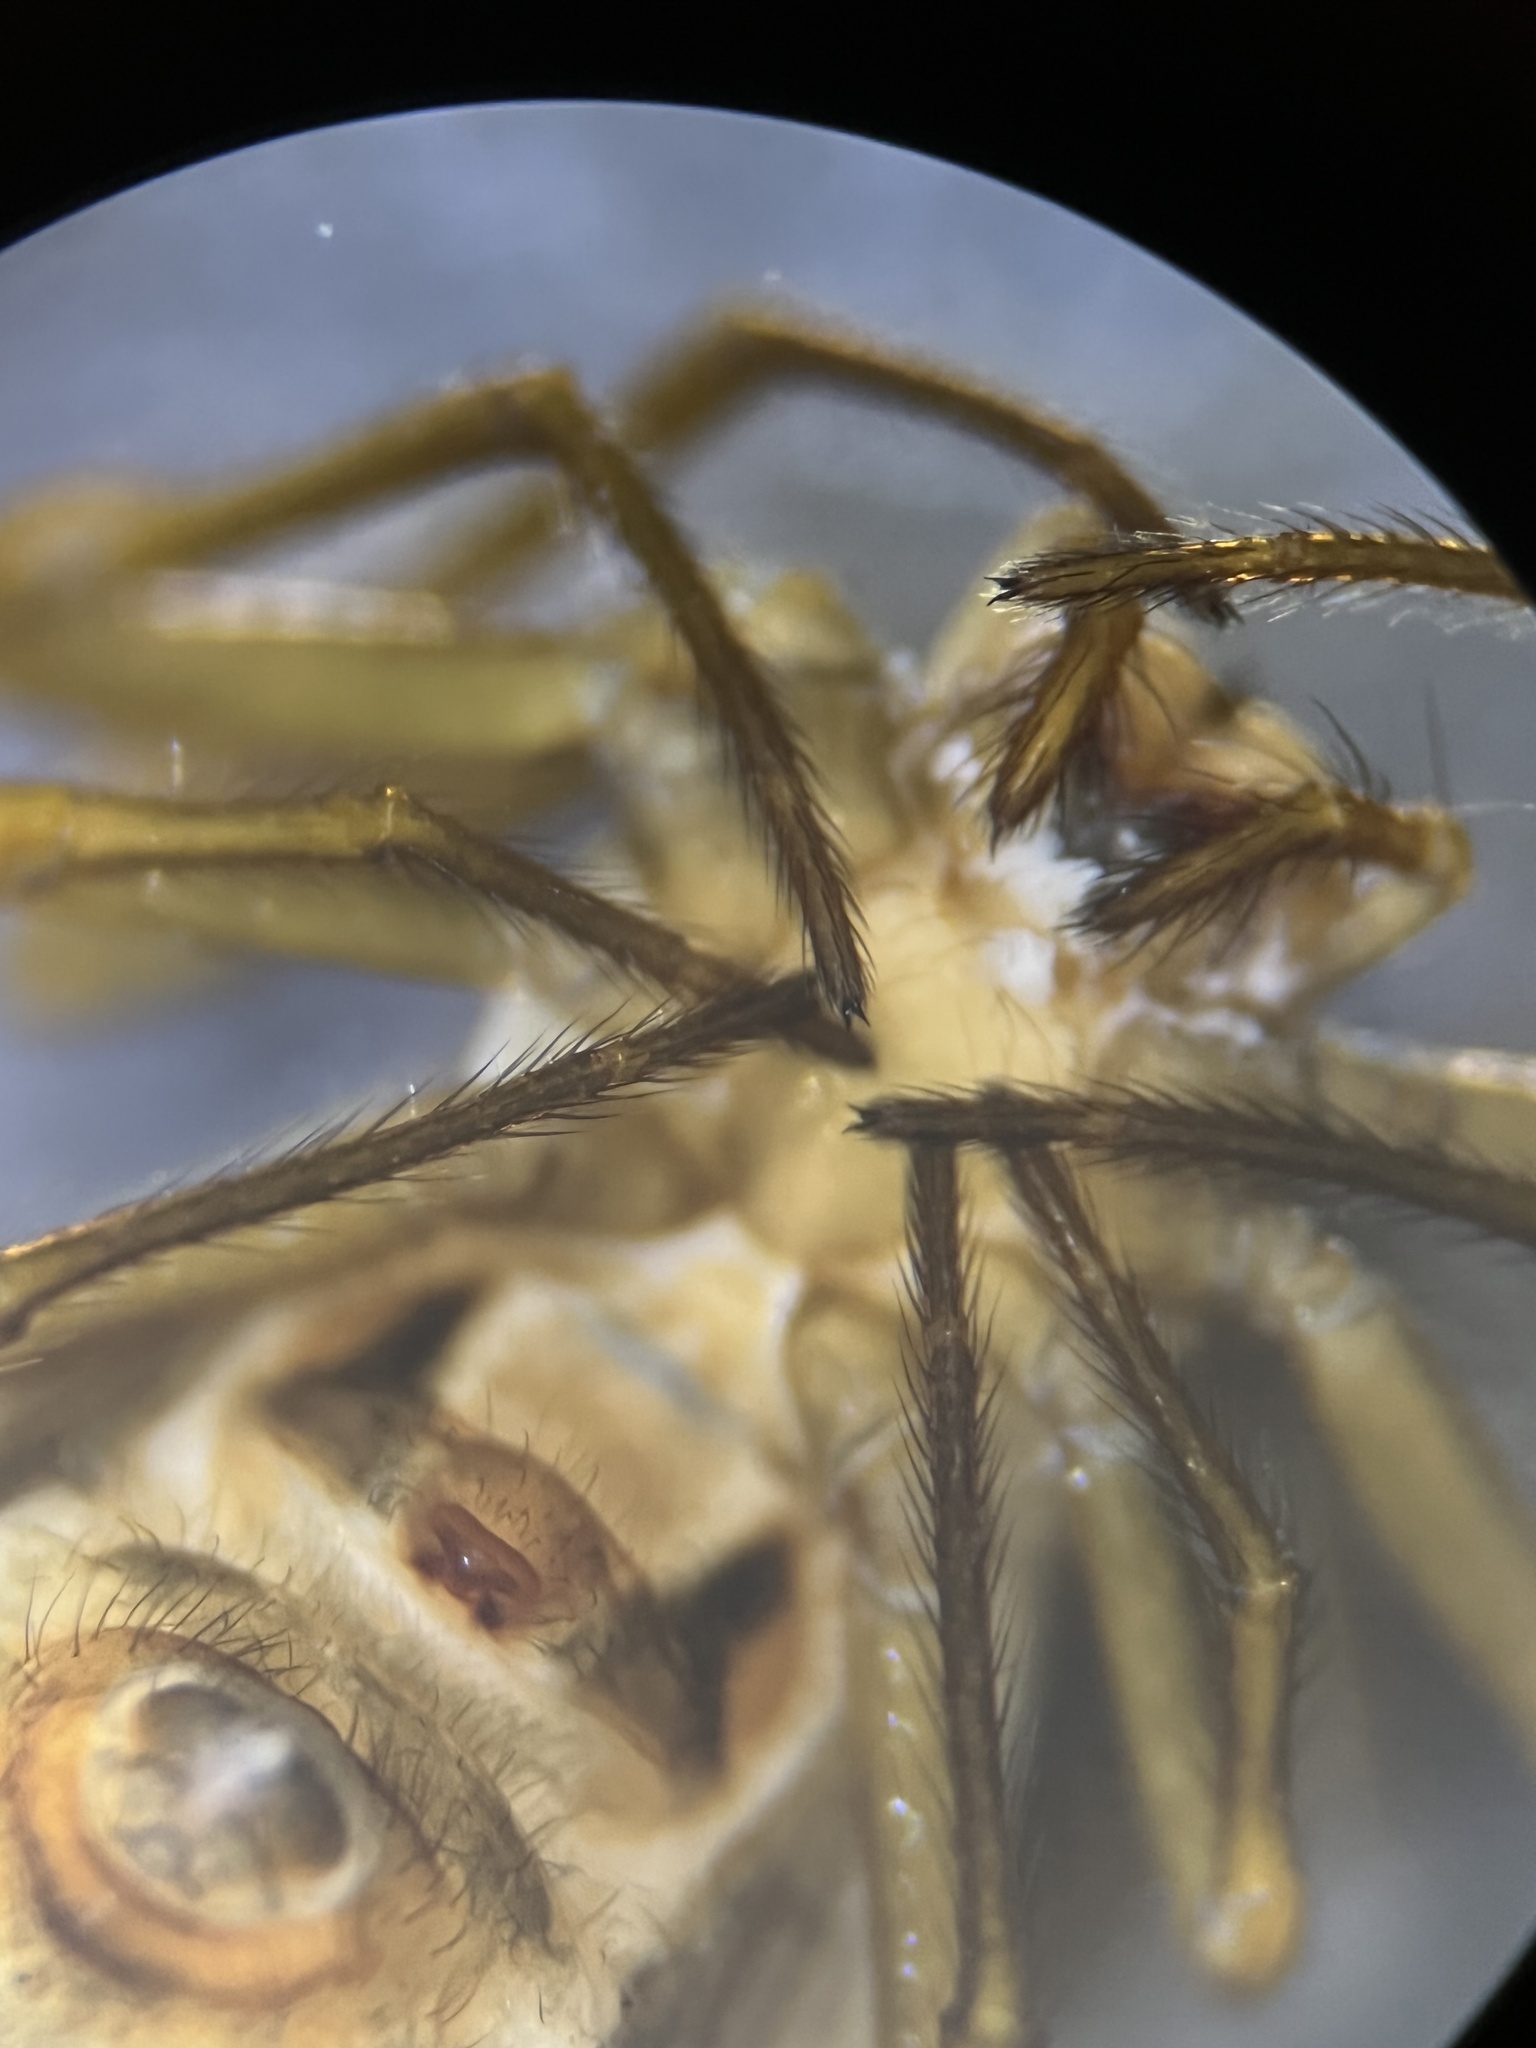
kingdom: Animalia
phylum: Arthropoda
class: Arachnida
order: Araneae
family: Araneidae
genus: Micrathena
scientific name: Micrathena huanuco
